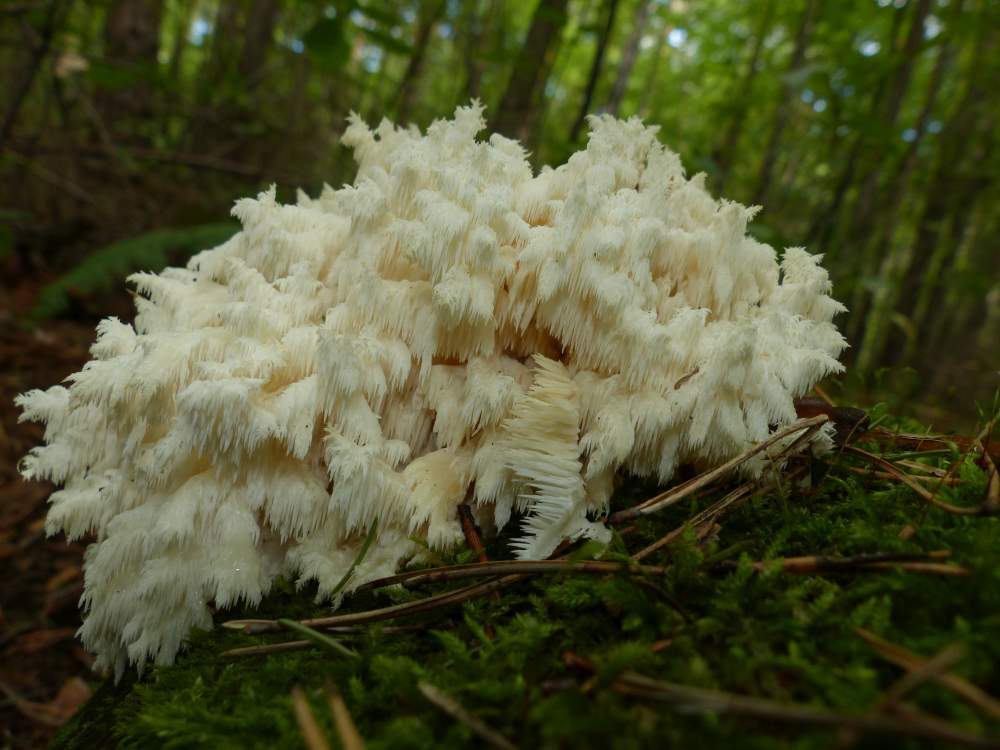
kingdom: Fungi
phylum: Basidiomycota
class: Agaricomycetes
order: Russulales
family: Hericiaceae
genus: Hericium
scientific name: Hericium coralloides
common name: Coral tooth
